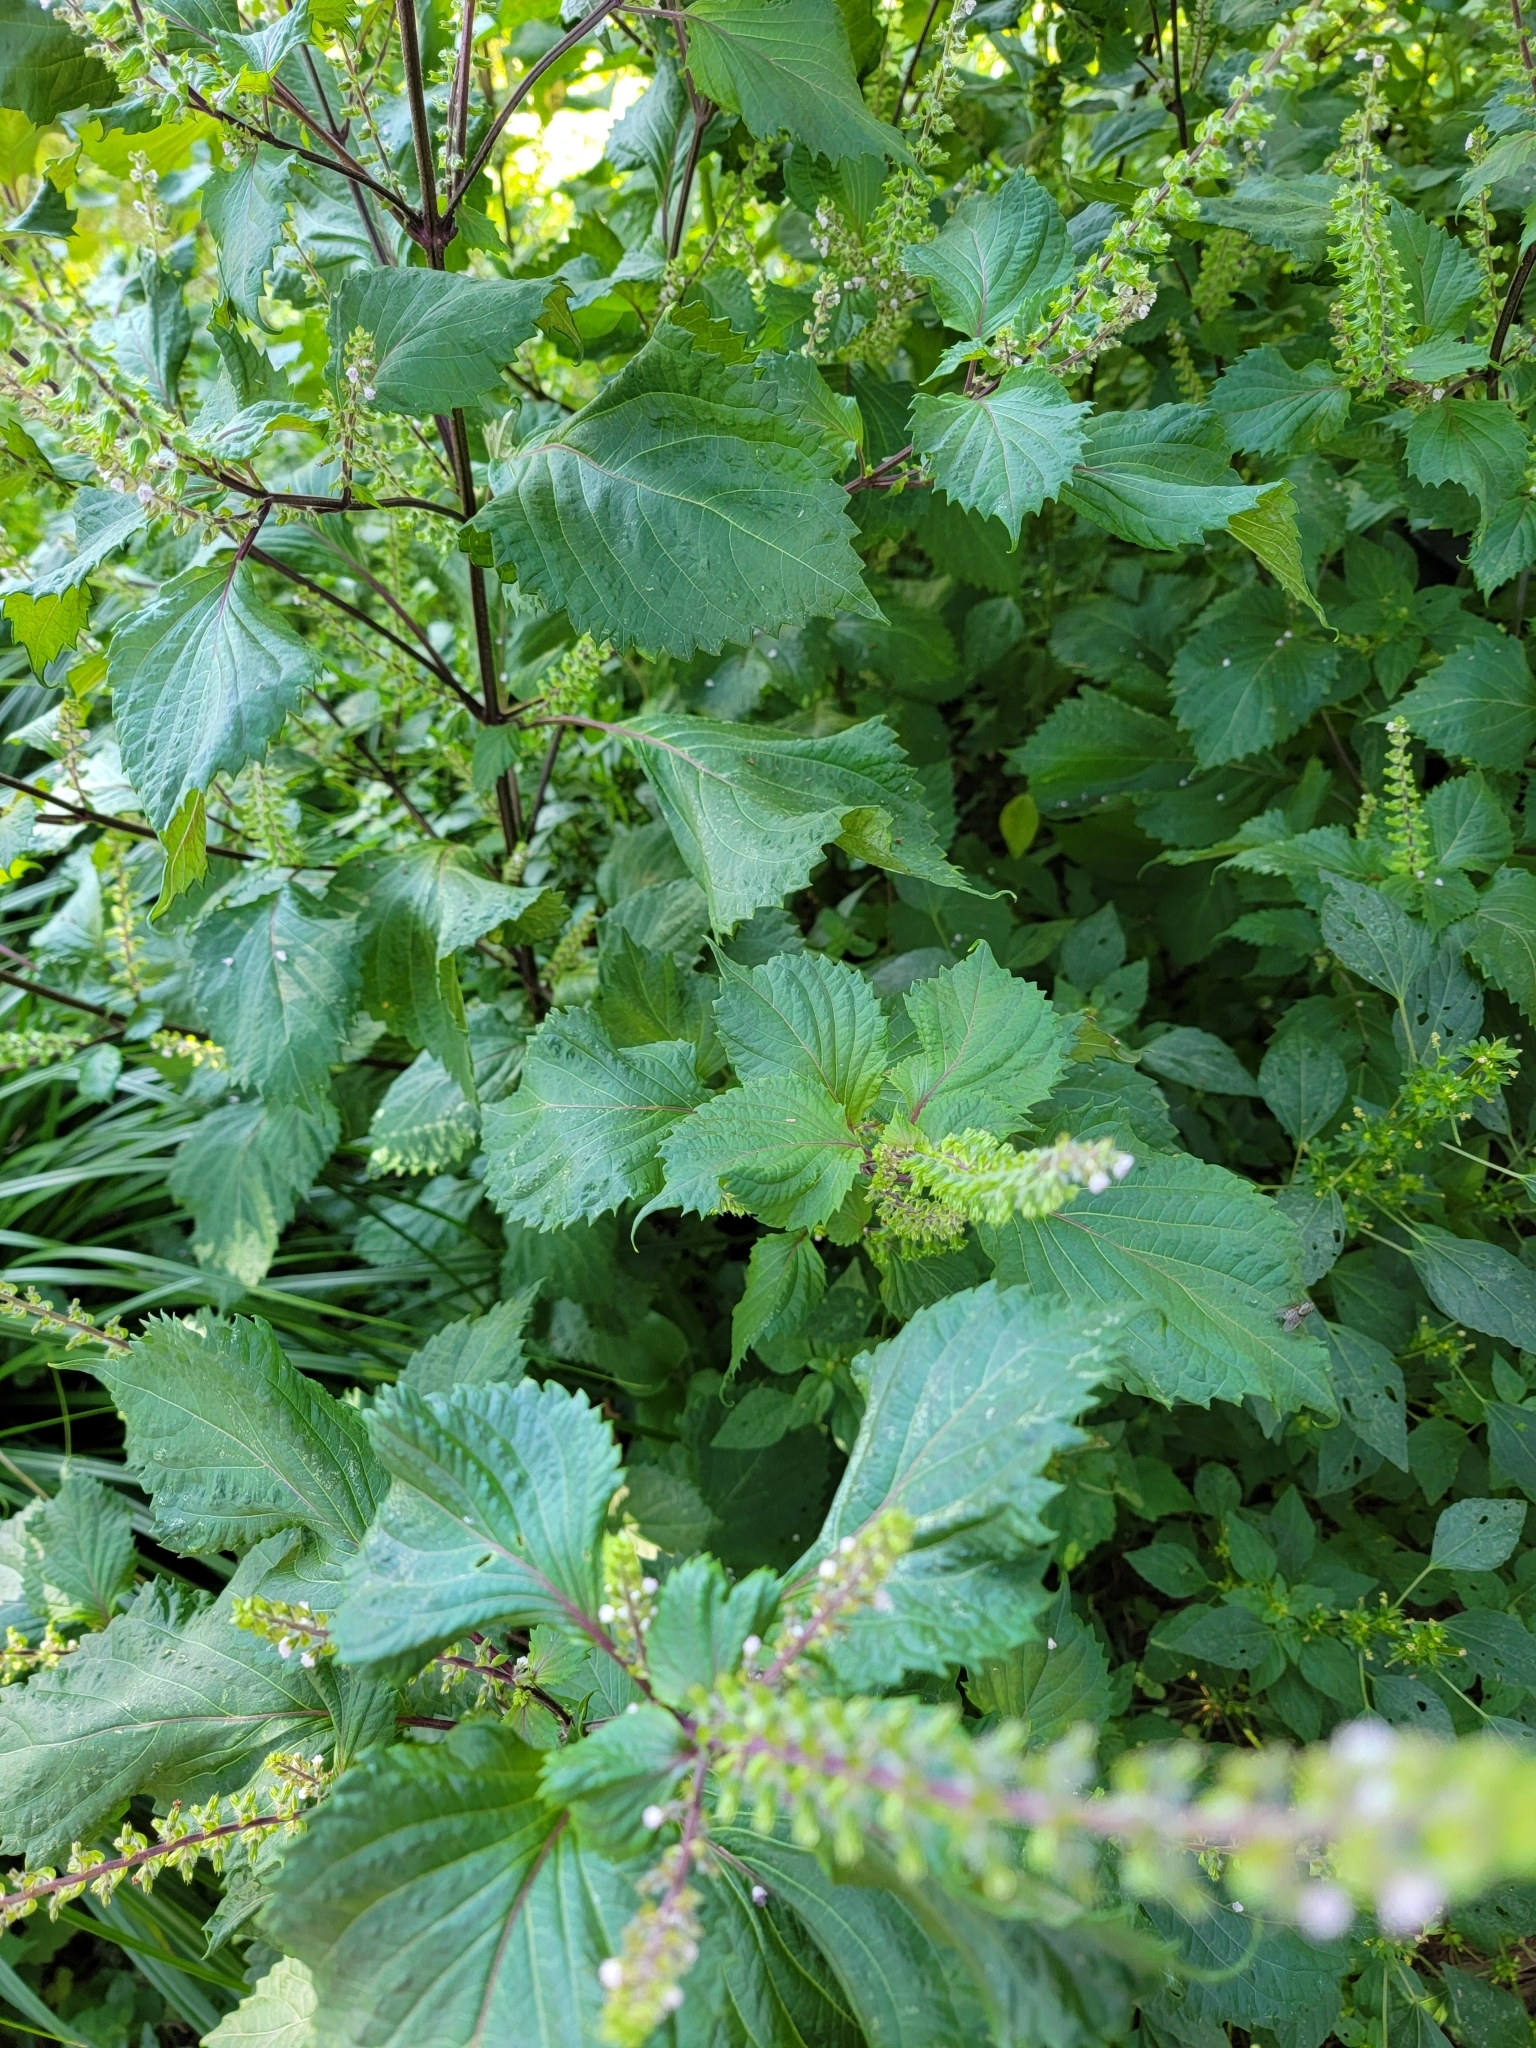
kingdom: Plantae
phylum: Tracheophyta
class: Magnoliopsida
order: Lamiales
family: Lamiaceae
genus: Perilla
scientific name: Perilla frutescens
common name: Perilla
